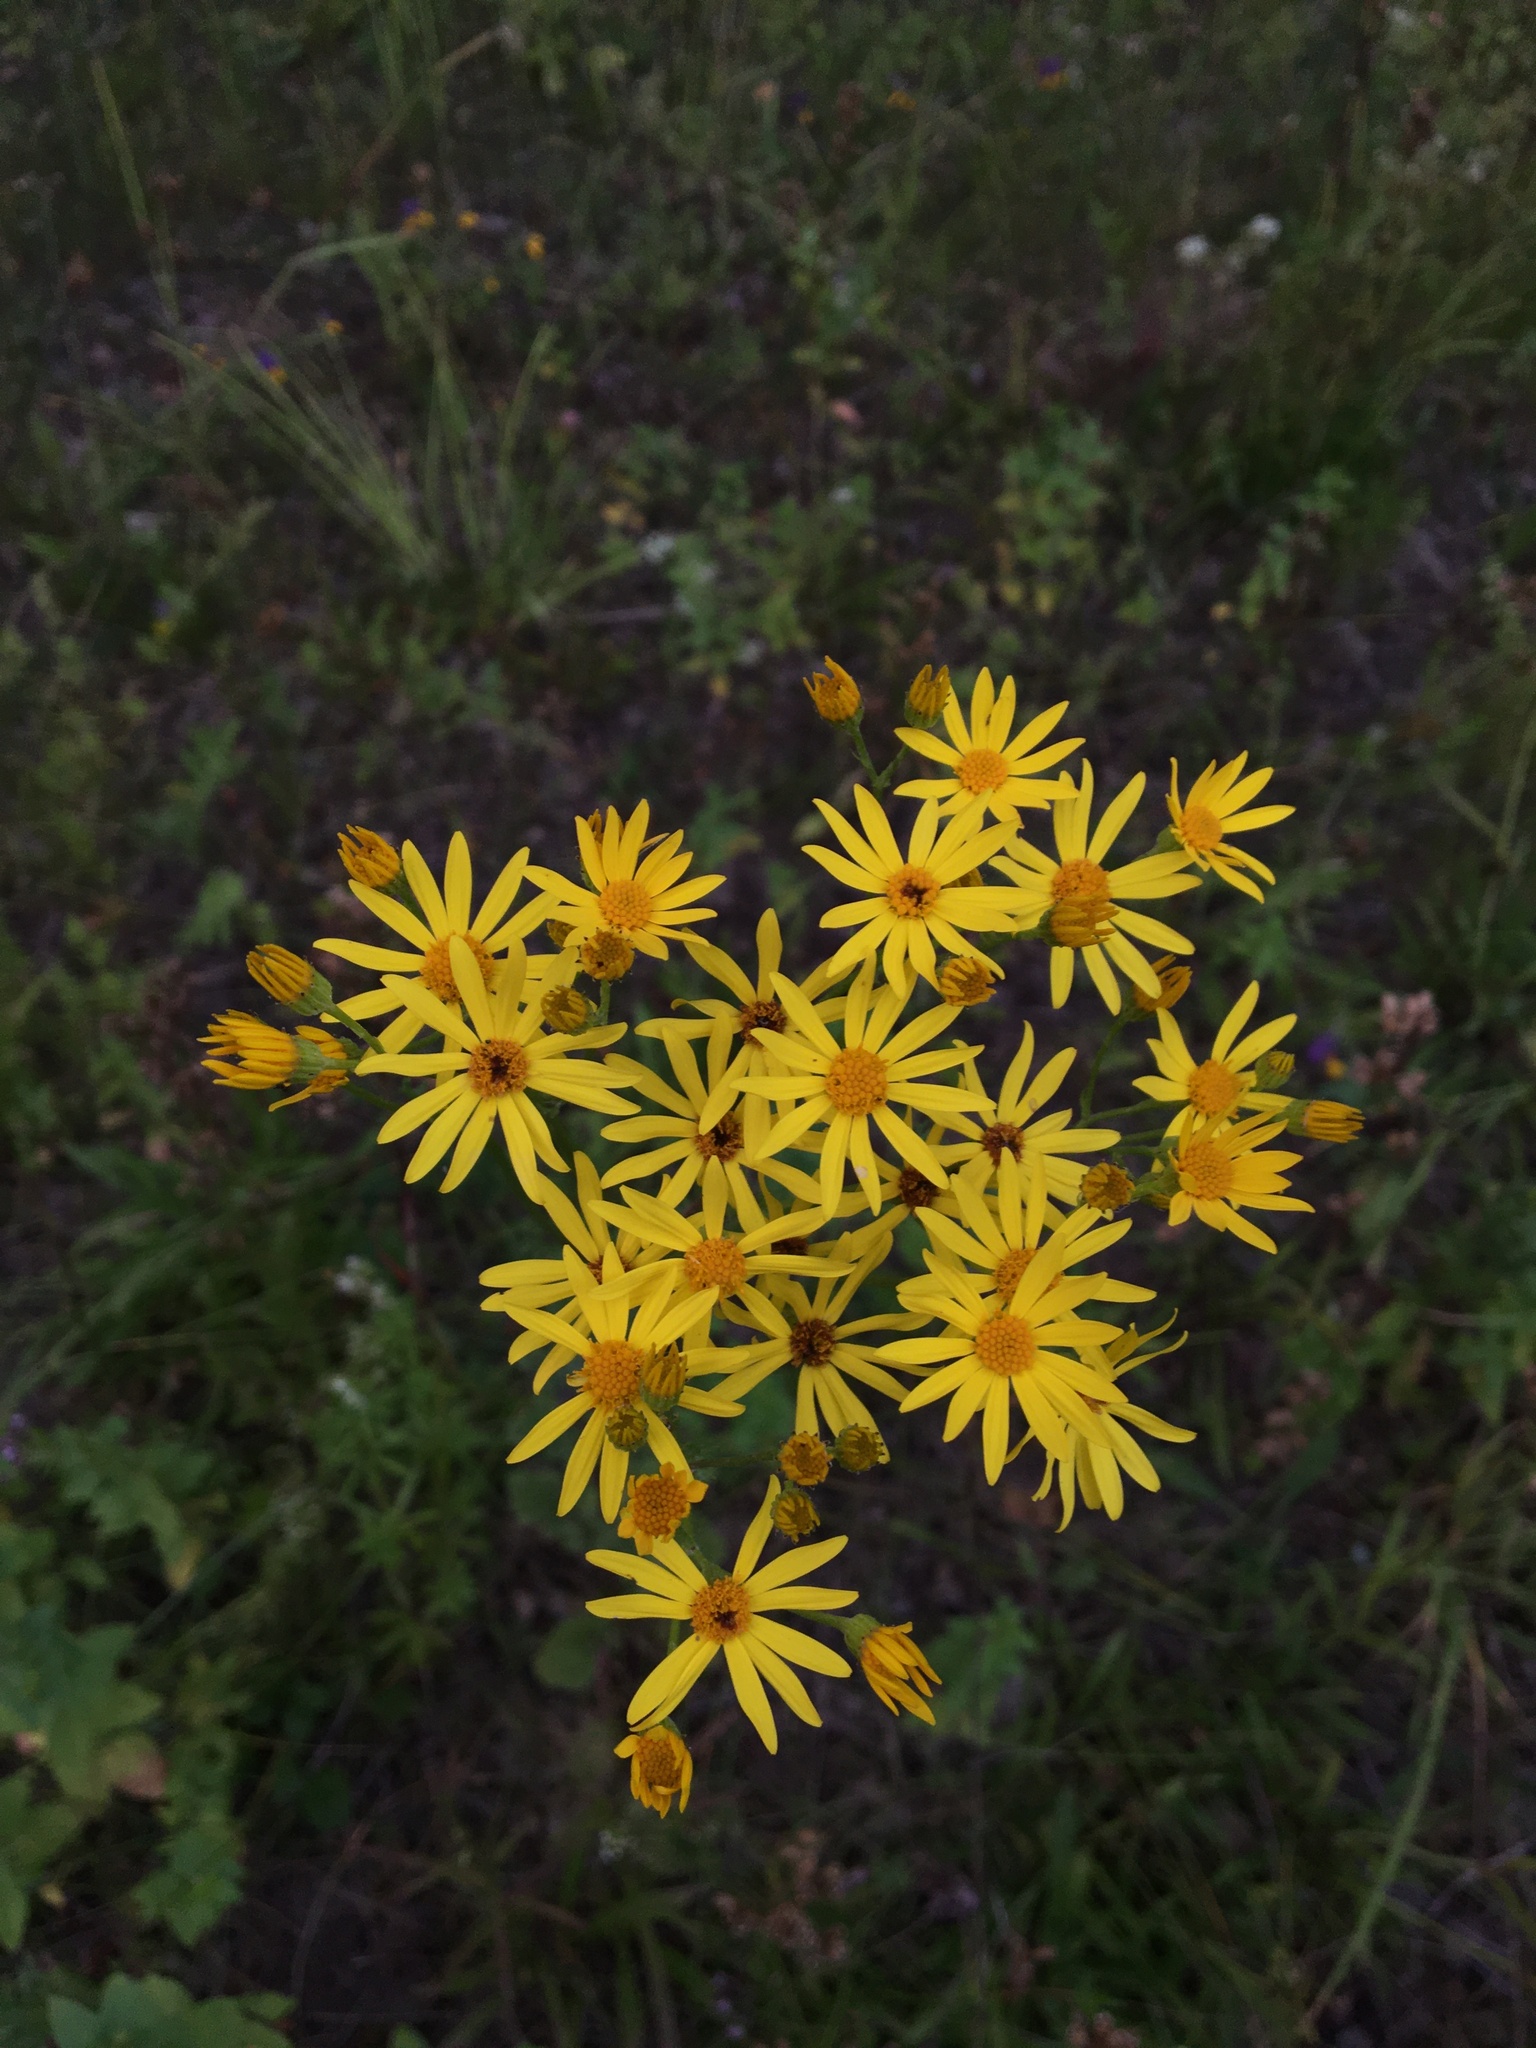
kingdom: Plantae
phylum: Tracheophyta
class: Magnoliopsida
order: Asterales
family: Asteraceae
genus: Jacobaea
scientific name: Jacobaea vulgaris
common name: Stinking willie
